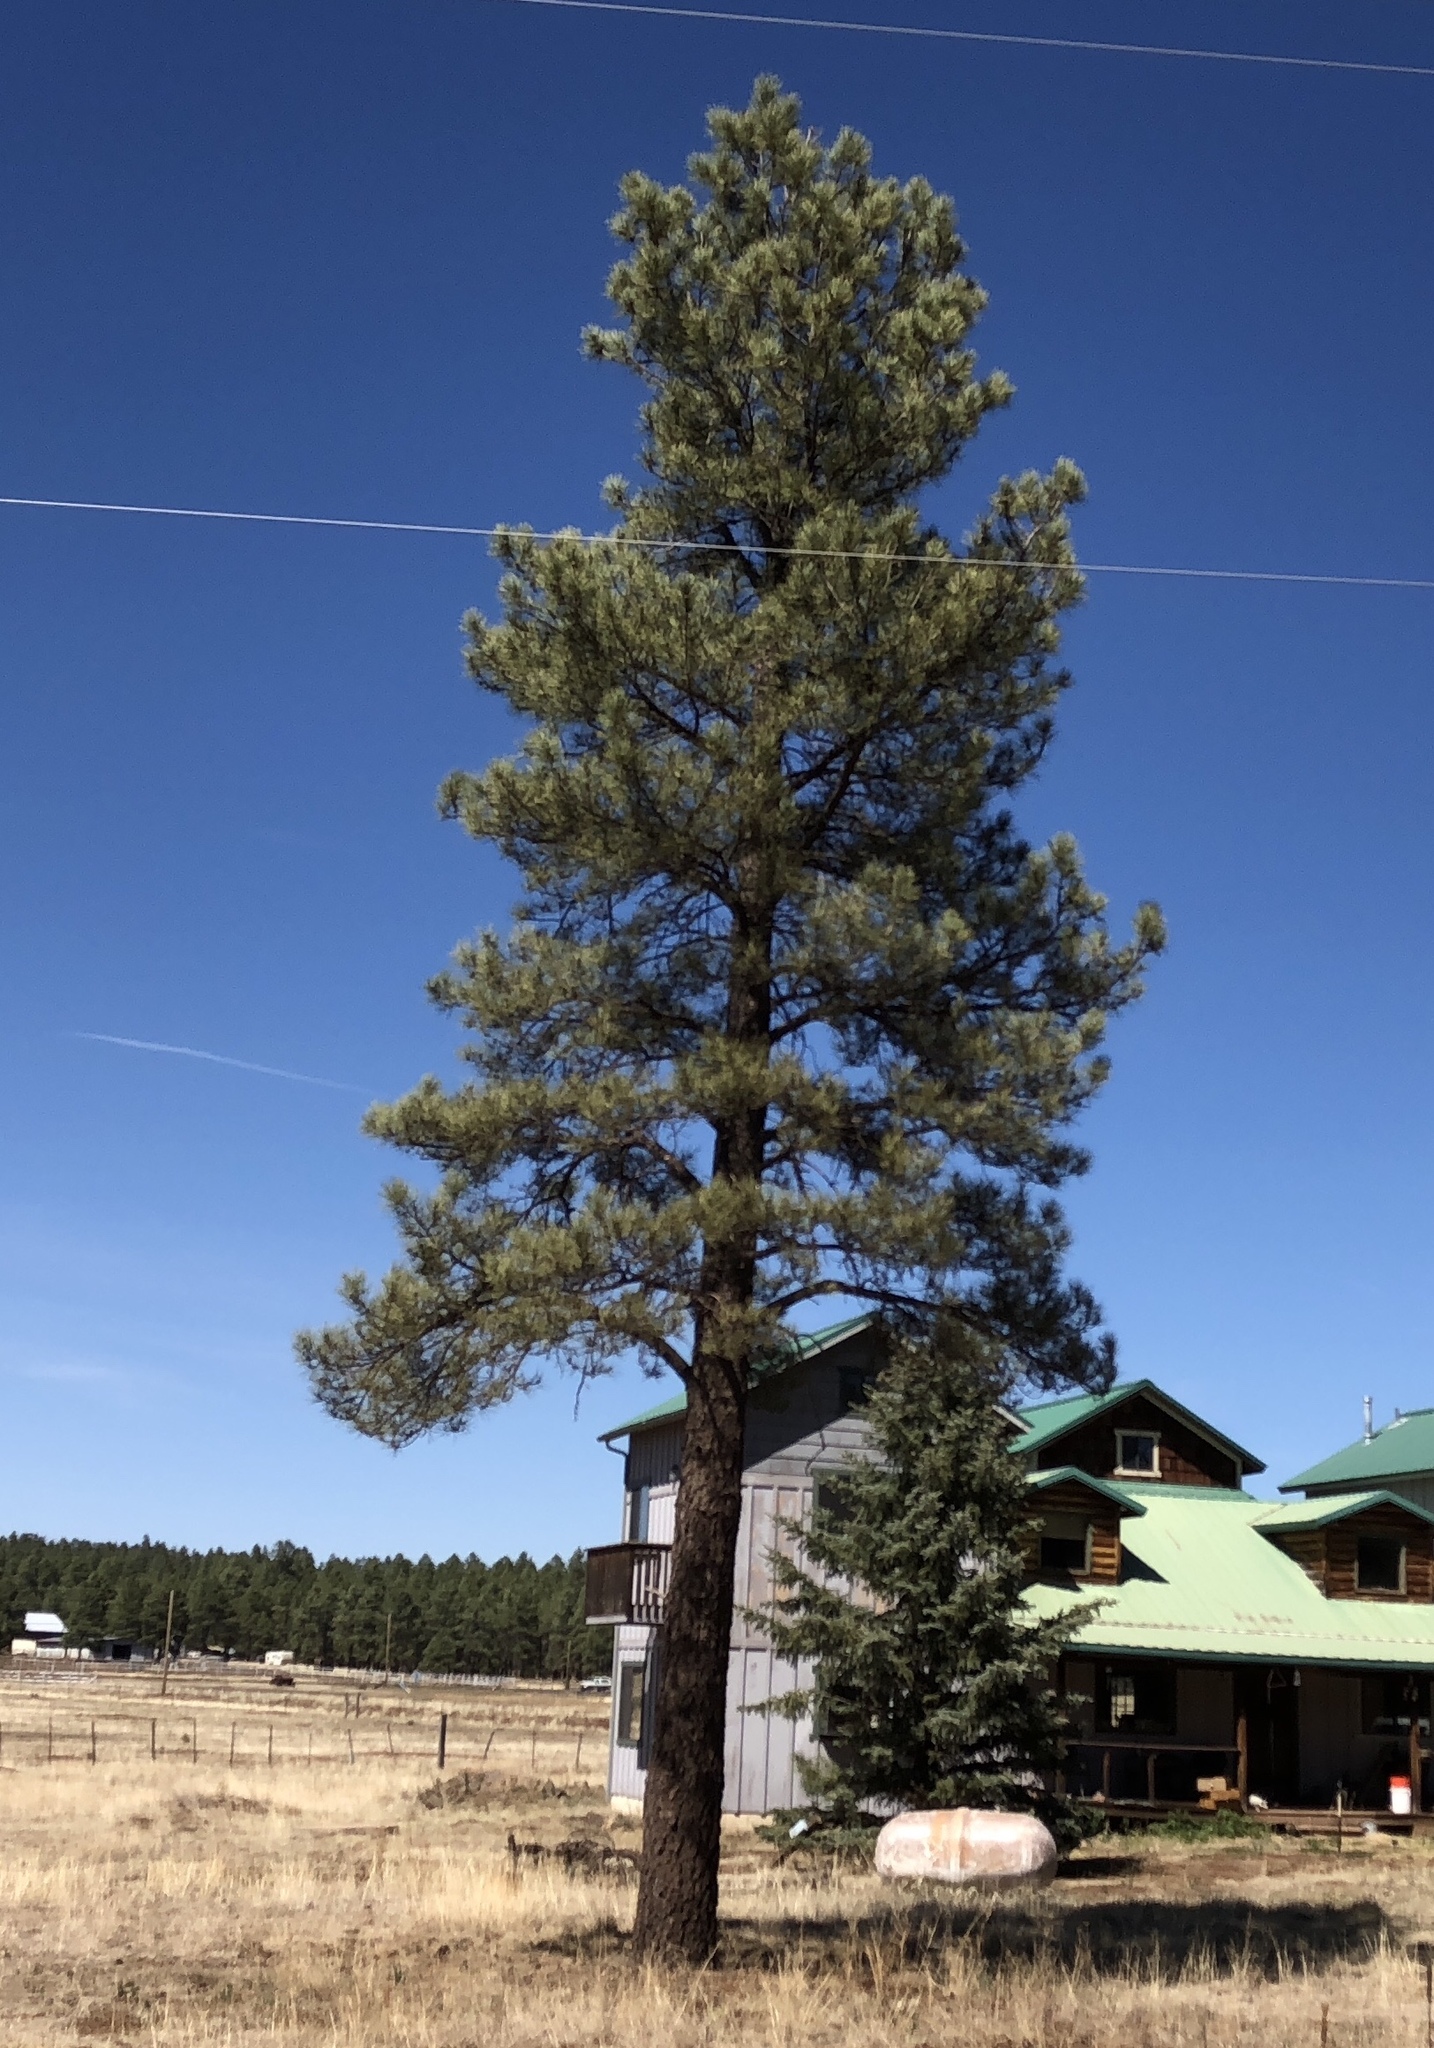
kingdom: Plantae
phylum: Tracheophyta
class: Pinopsida
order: Pinales
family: Pinaceae
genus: Pinus
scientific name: Pinus ponderosa
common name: Western yellow-pine
